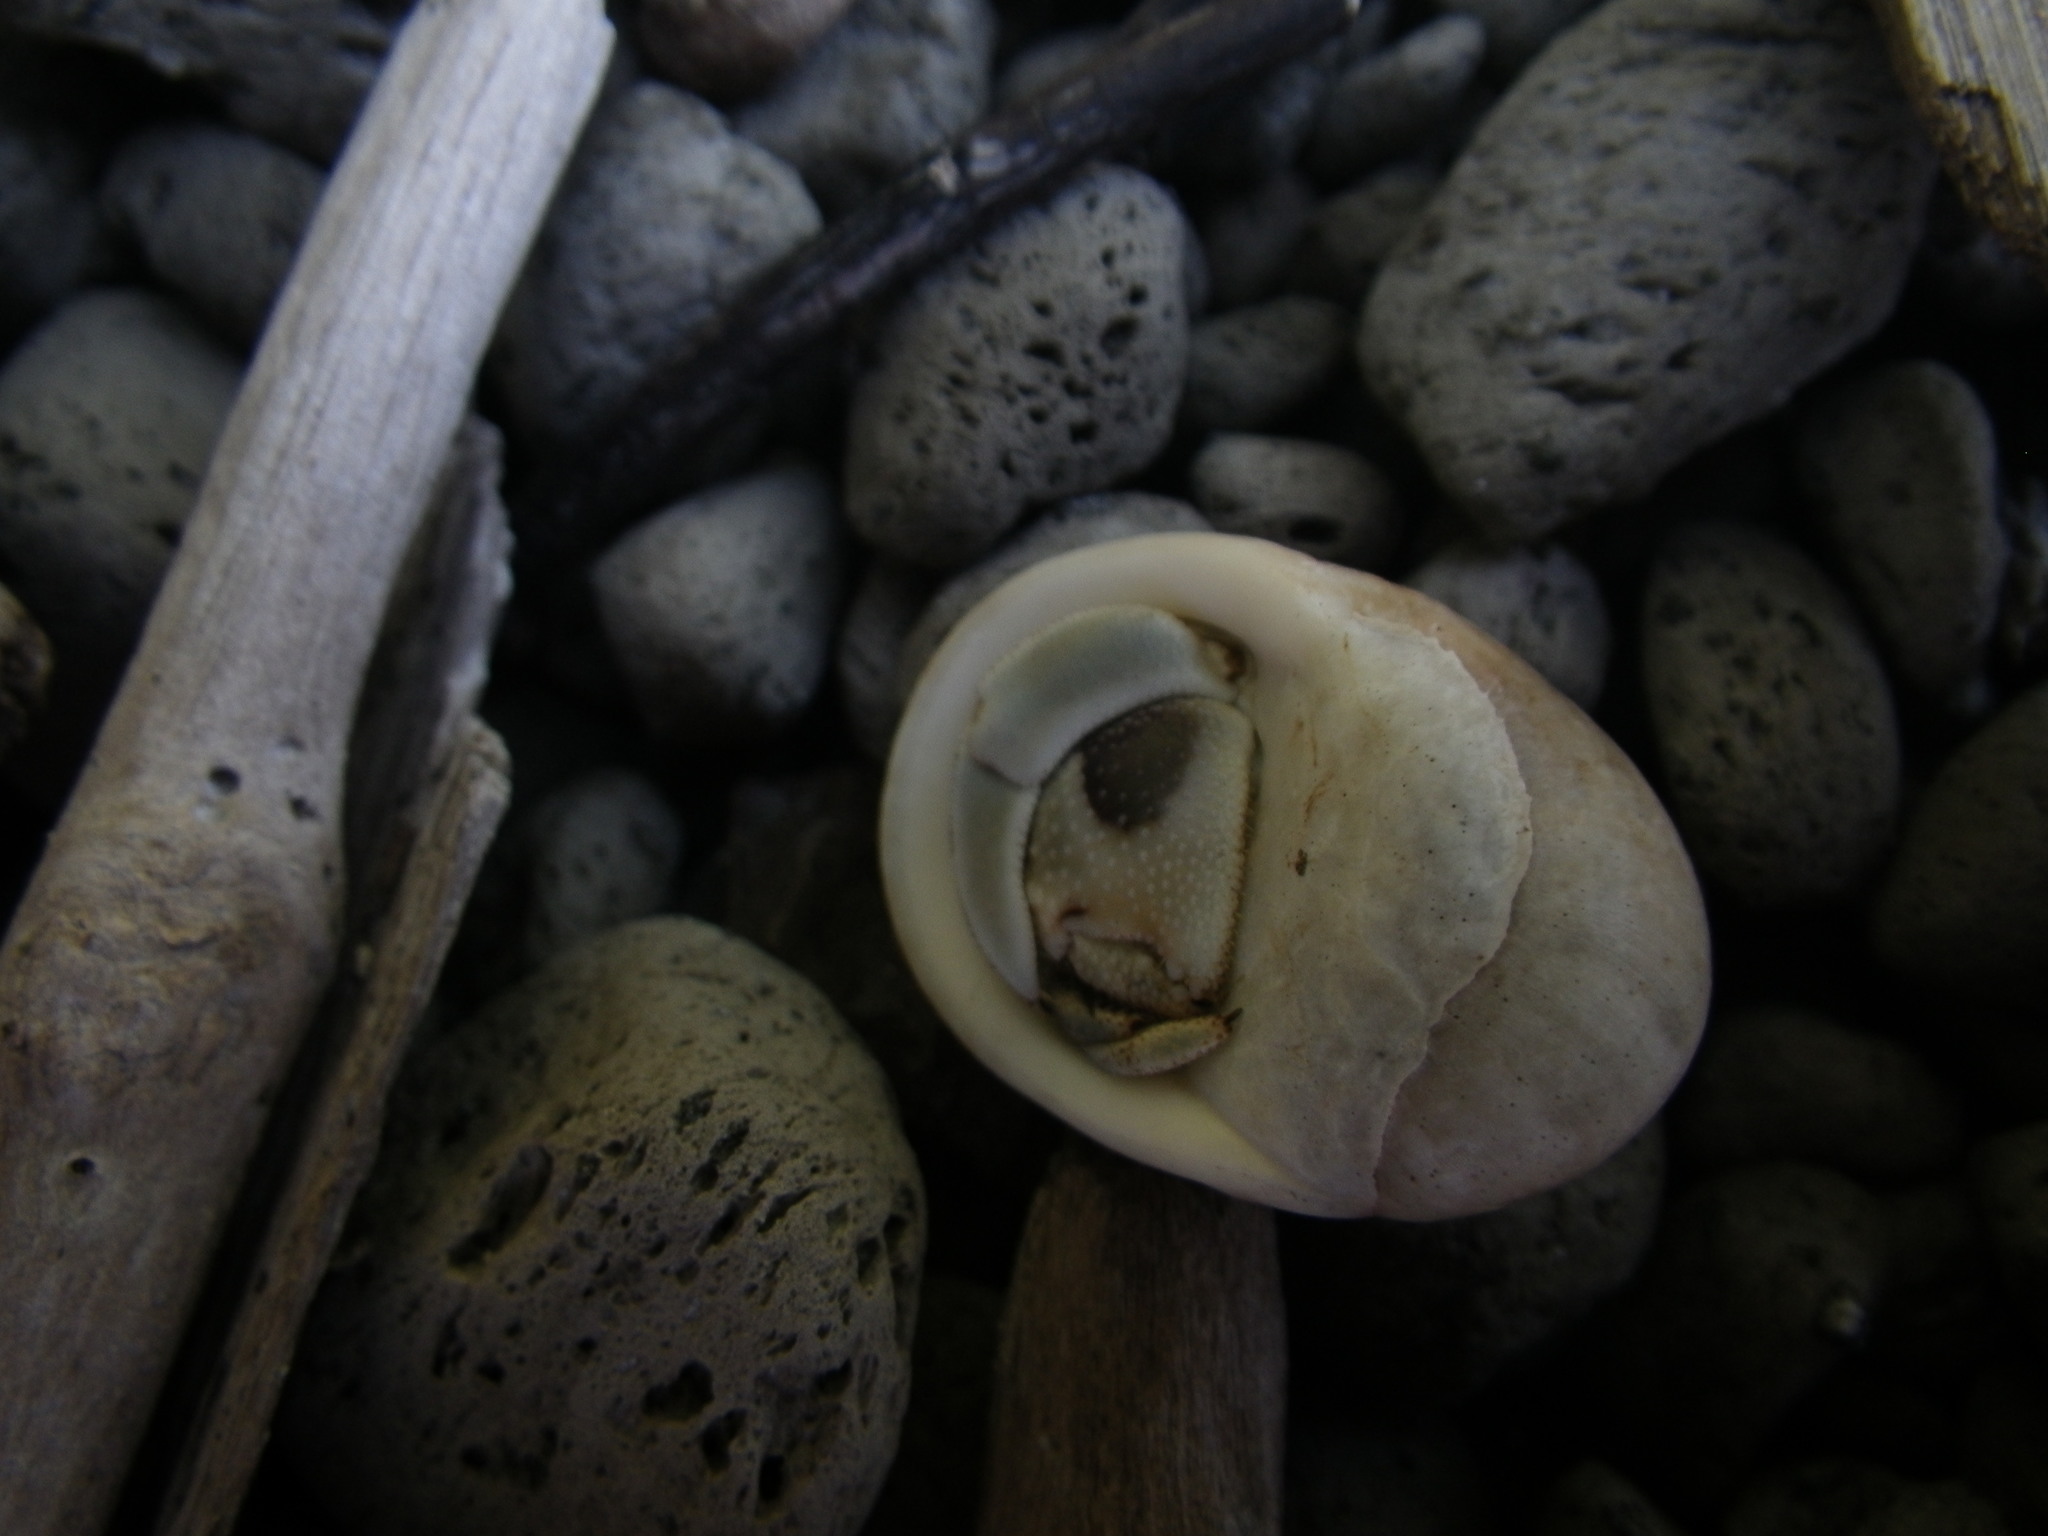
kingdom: Animalia
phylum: Arthropoda
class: Malacostraca
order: Decapoda
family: Coenobitidae
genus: Coenobita
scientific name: Coenobita rugosus
